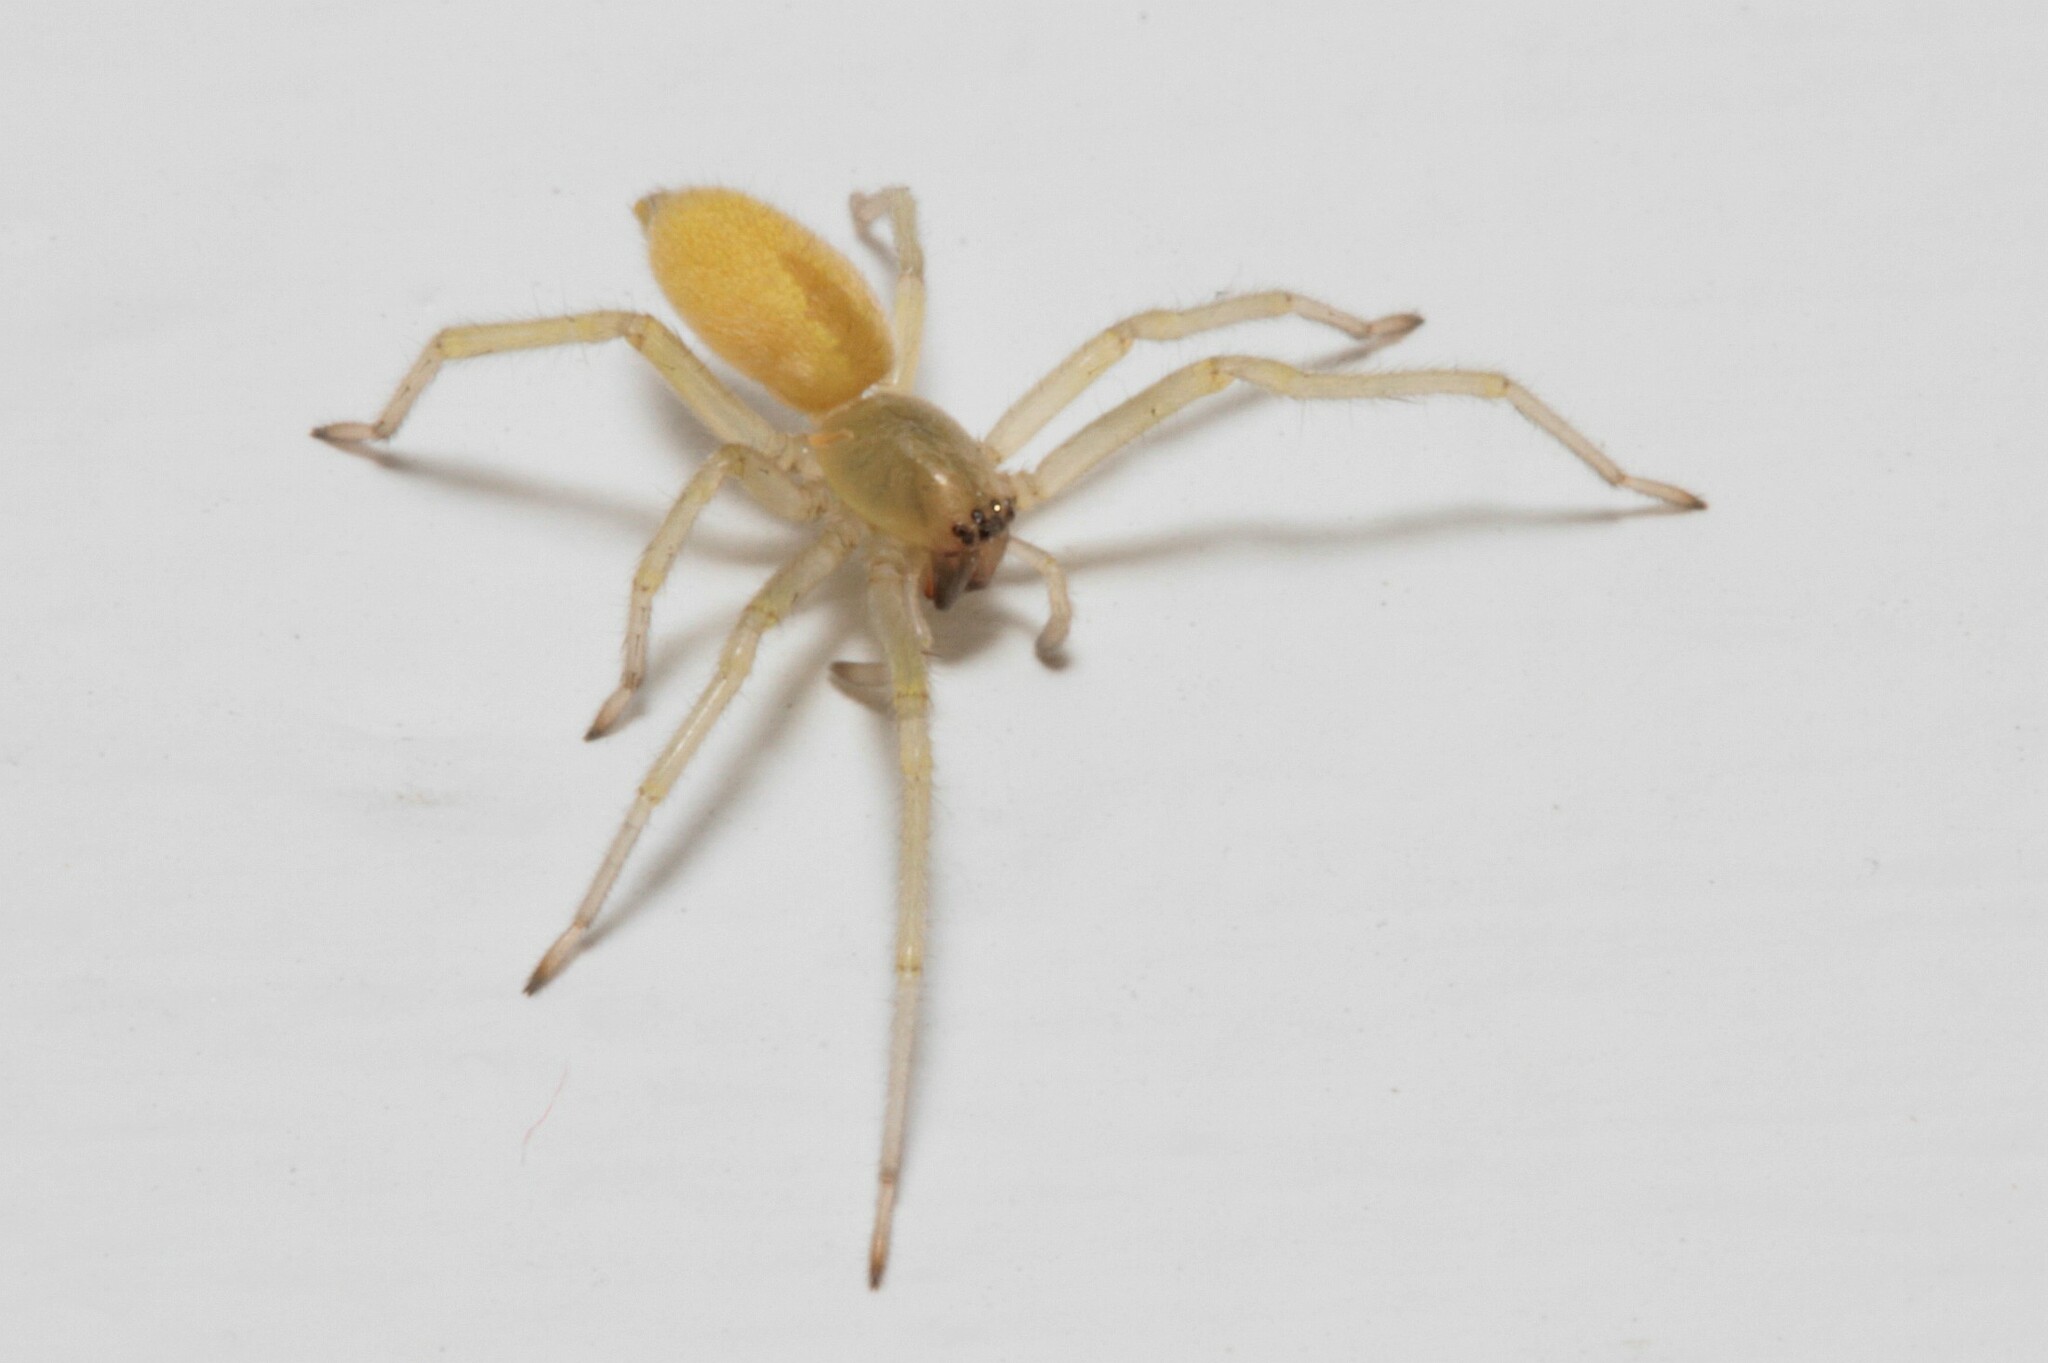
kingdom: Animalia
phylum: Arthropoda
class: Arachnida
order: Araneae
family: Cheiracanthiidae
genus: Cheiracanthium
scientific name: Cheiracanthium mildei
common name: Northern yellow sac spider
